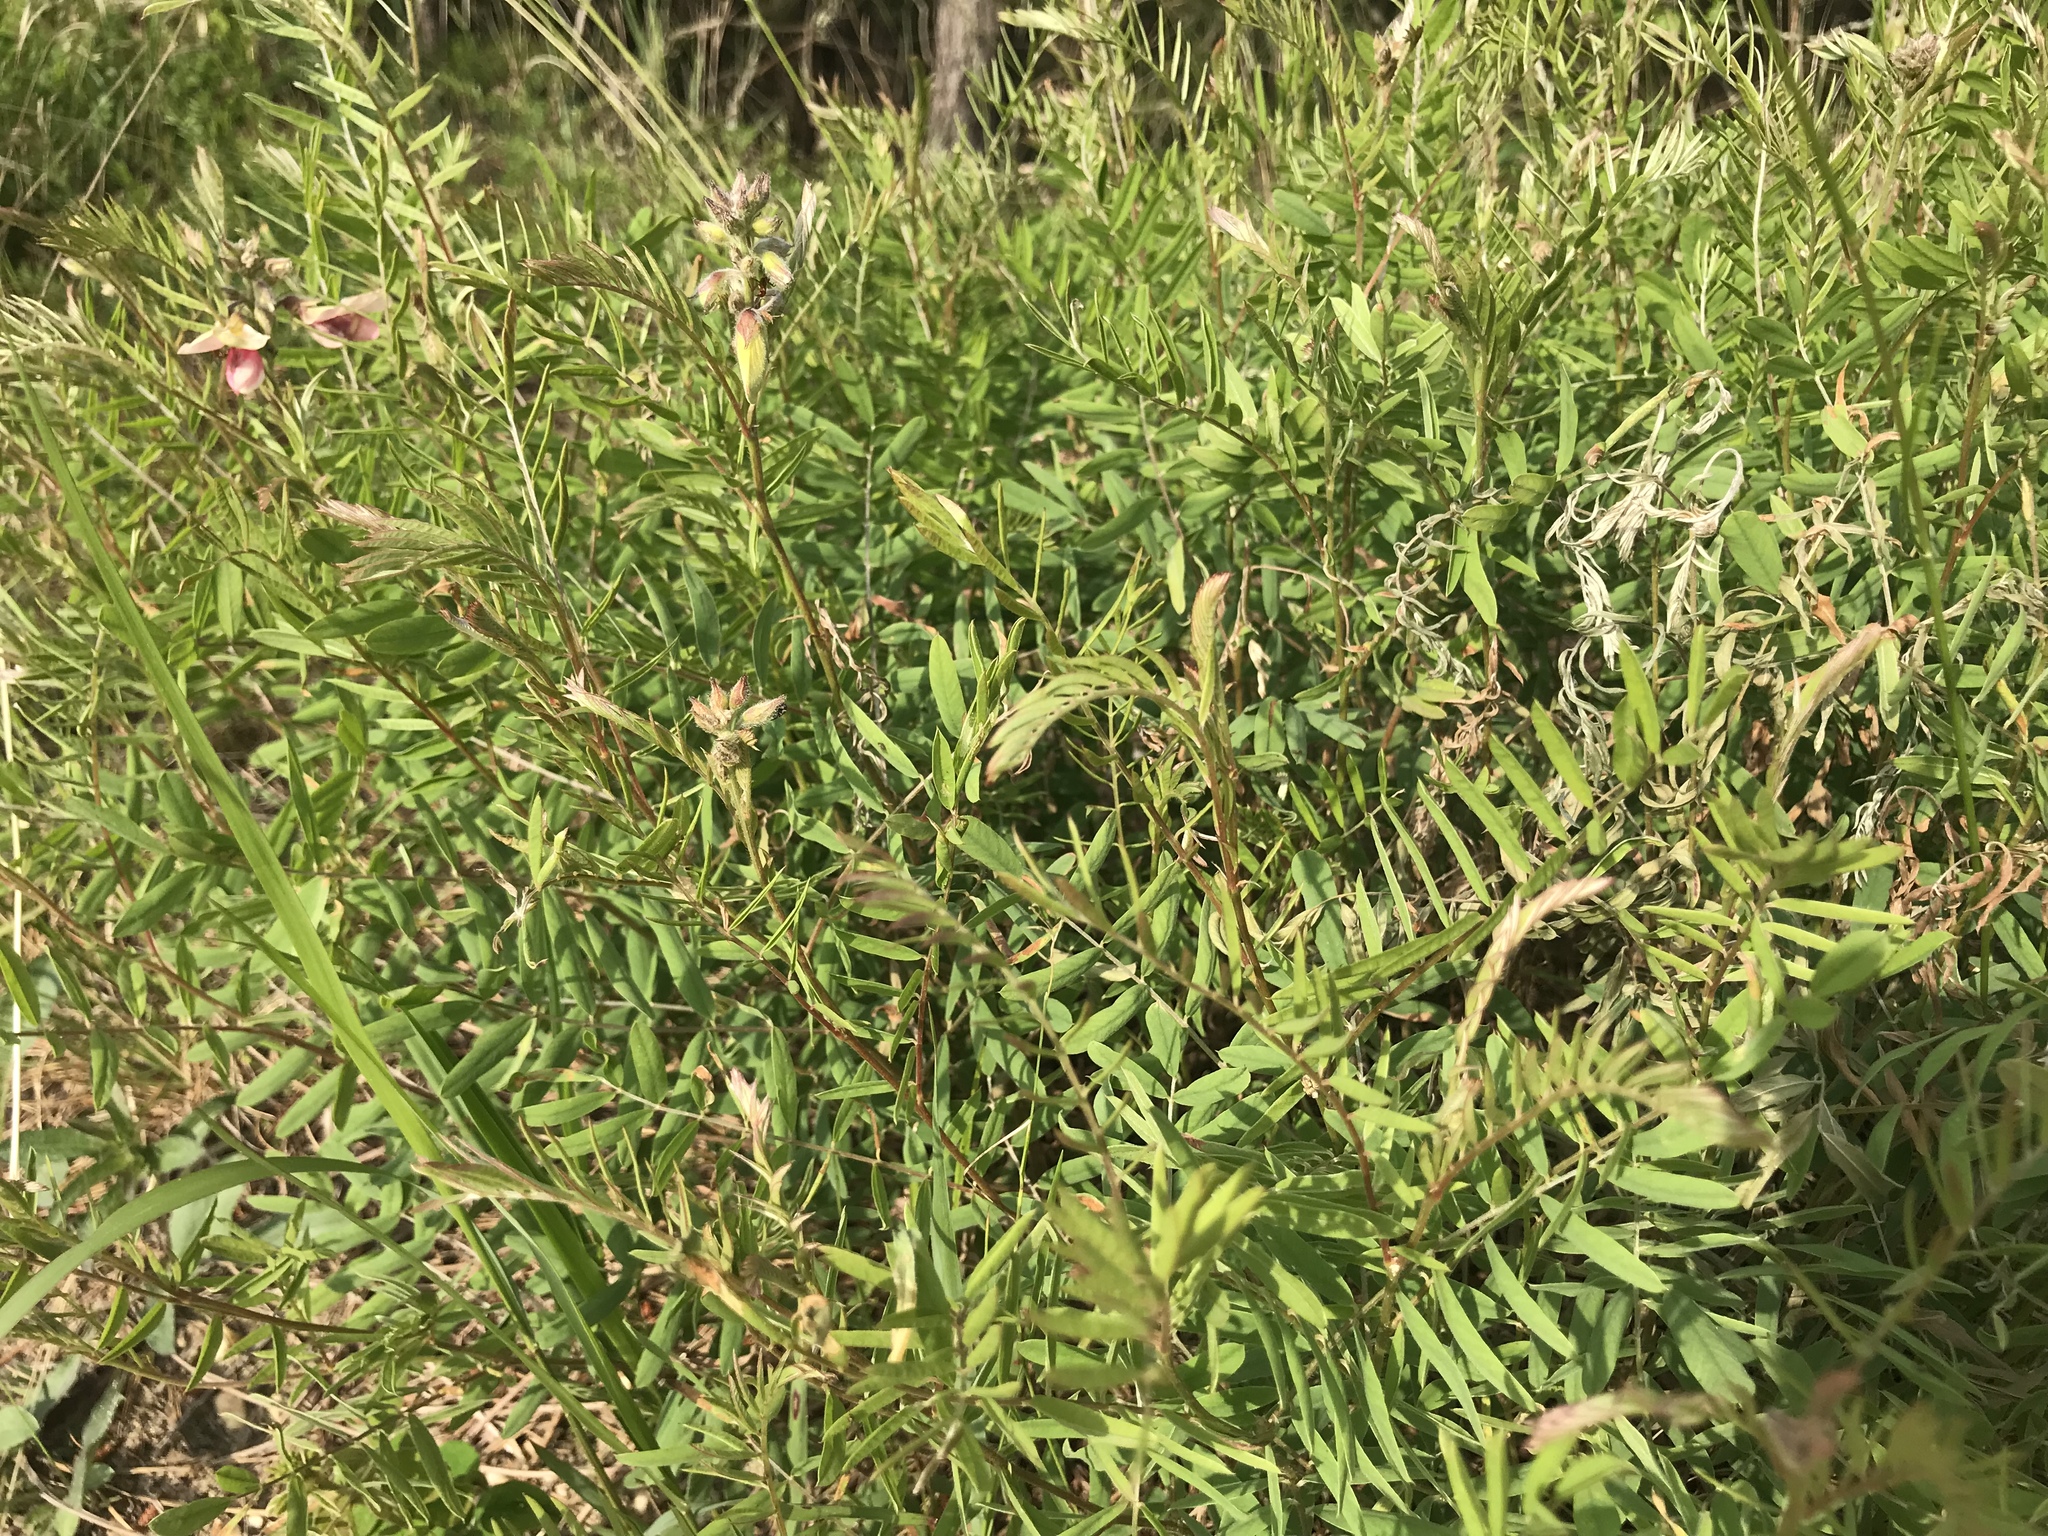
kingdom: Plantae
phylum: Tracheophyta
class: Magnoliopsida
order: Fabales
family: Fabaceae
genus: Tephrosia
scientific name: Tephrosia virginiana
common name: Rabbit-pea
